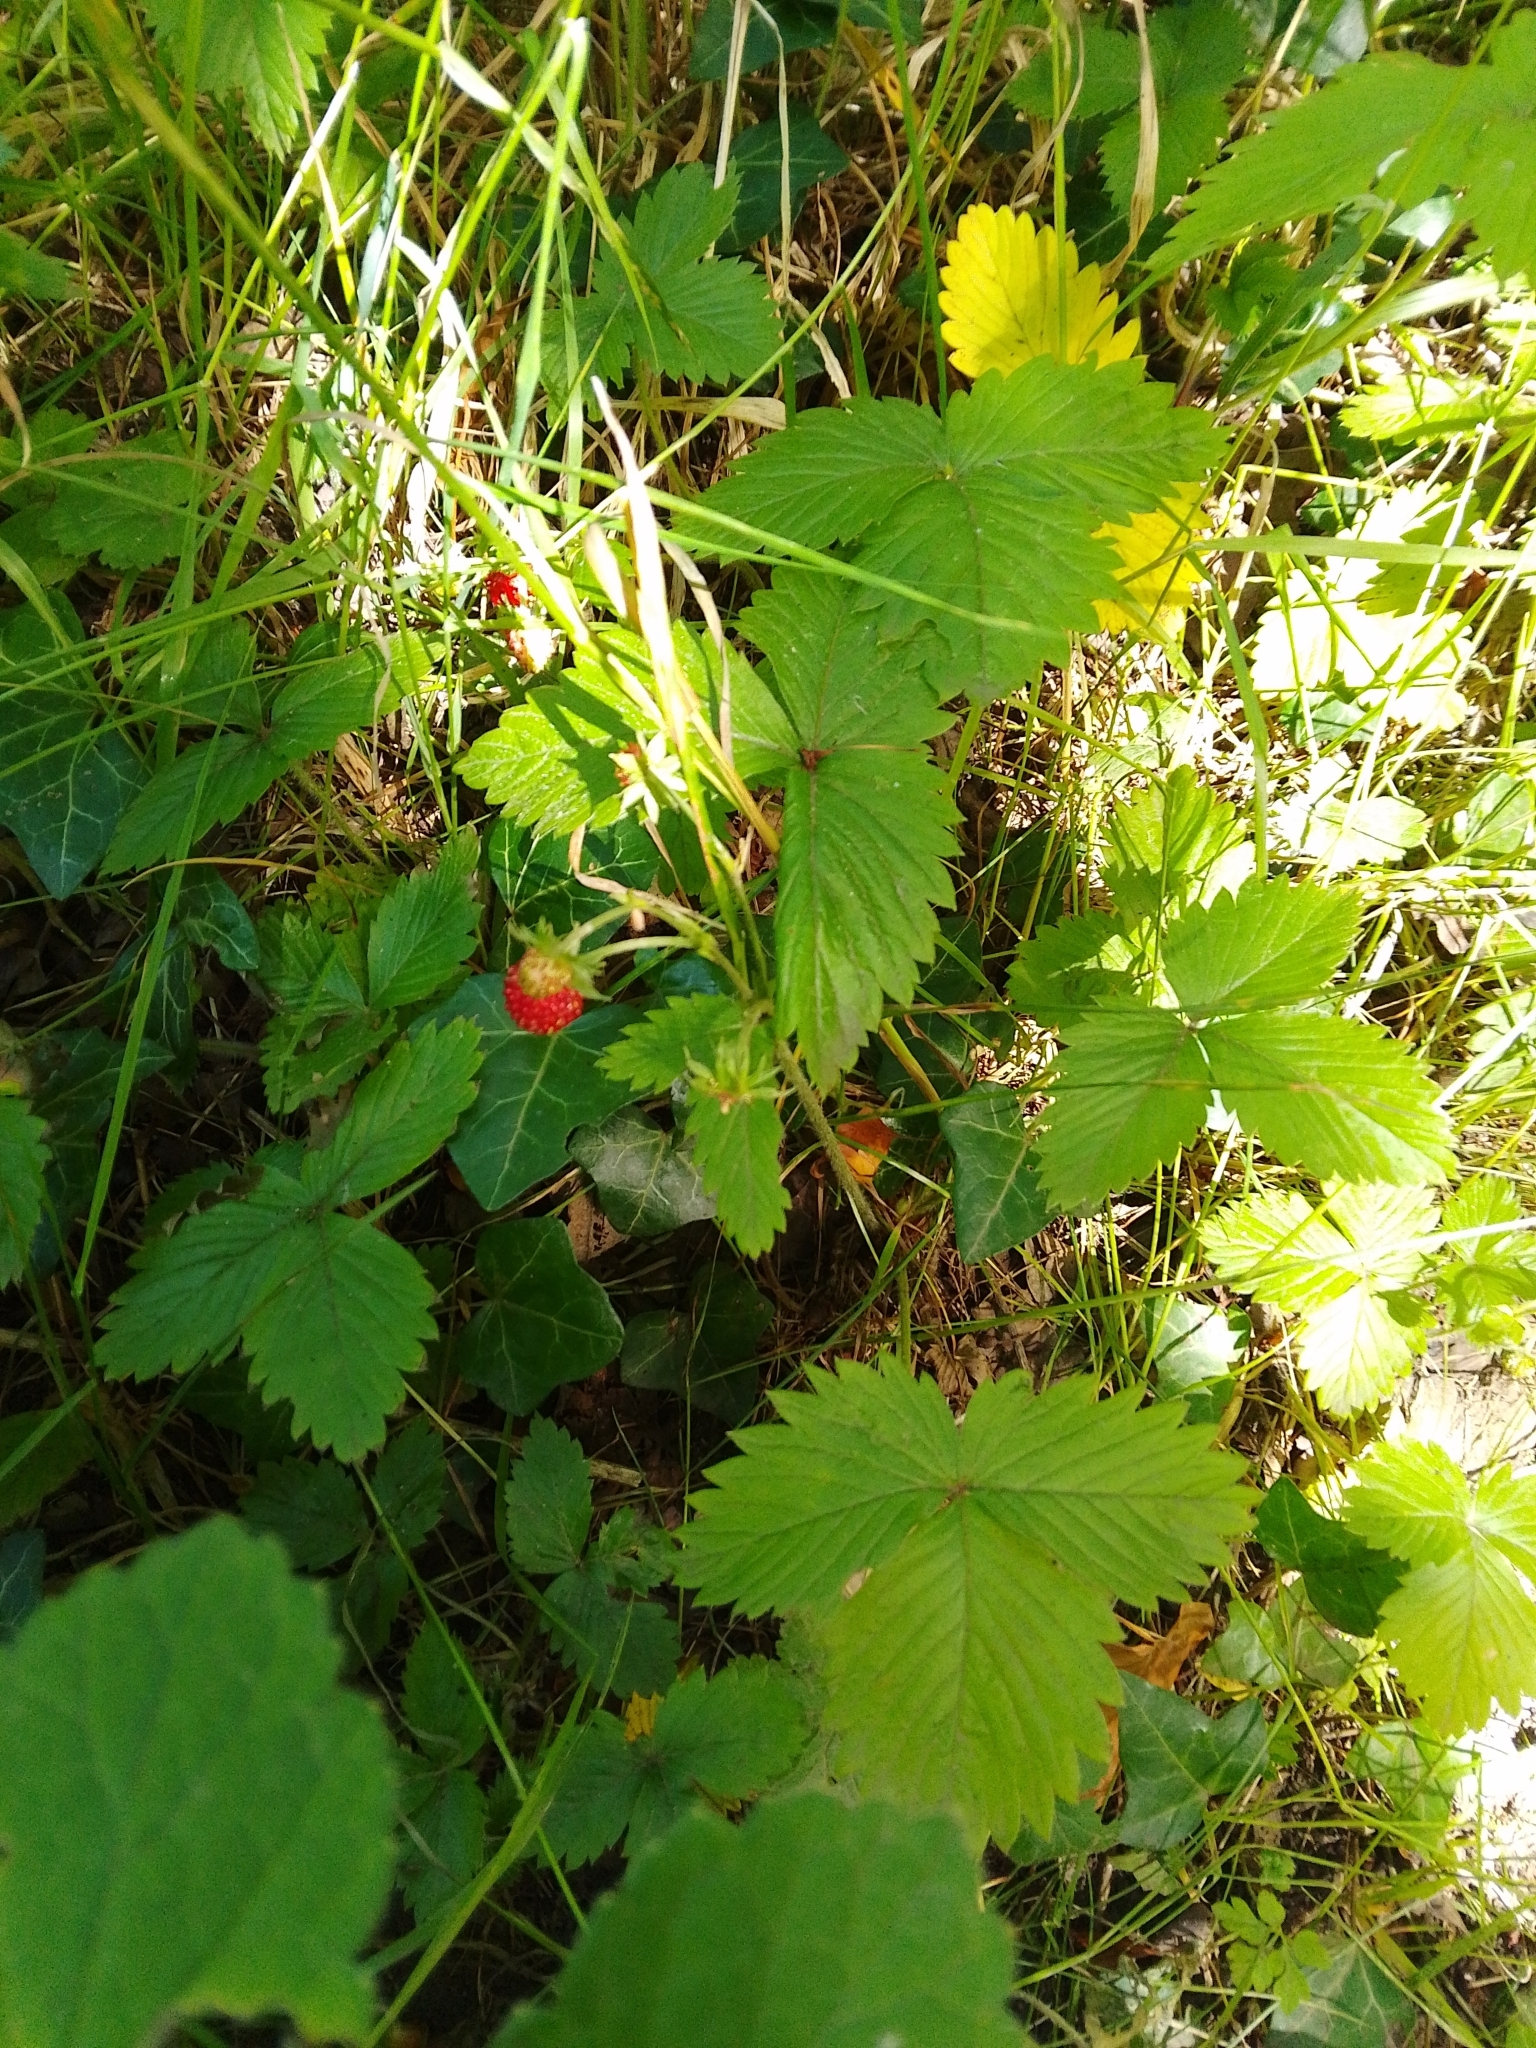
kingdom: Plantae
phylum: Tracheophyta
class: Magnoliopsida
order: Rosales
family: Rosaceae
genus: Fragaria
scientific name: Fragaria vesca
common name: Wild strawberry
